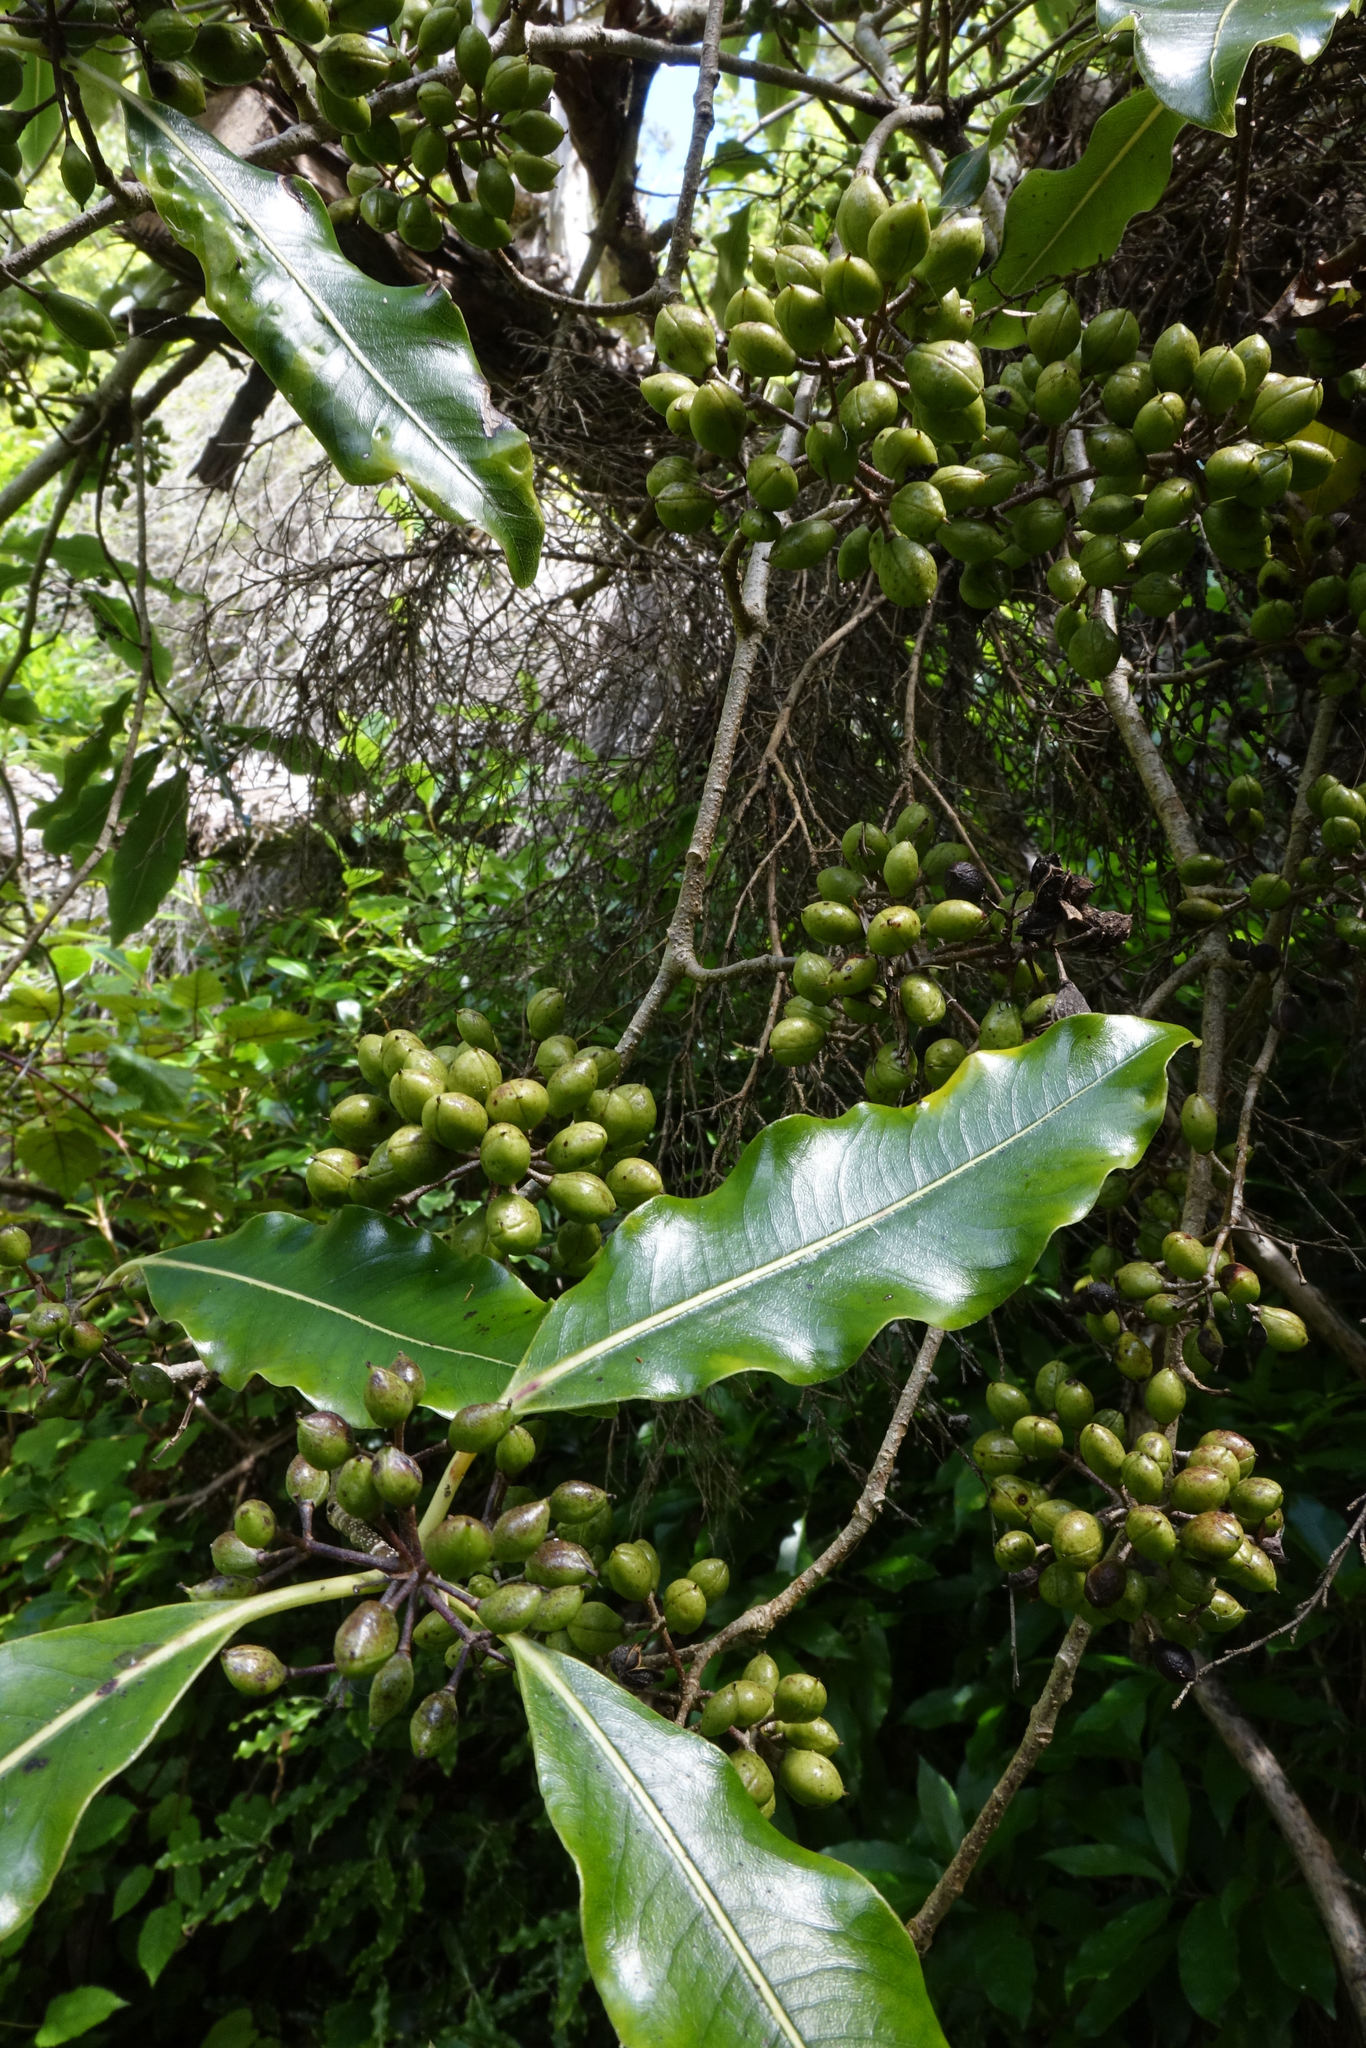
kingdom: Plantae
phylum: Tracheophyta
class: Magnoliopsida
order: Apiales
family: Pittosporaceae
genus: Pittosporum
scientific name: Pittosporum eugenioides
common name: Lemonwood
